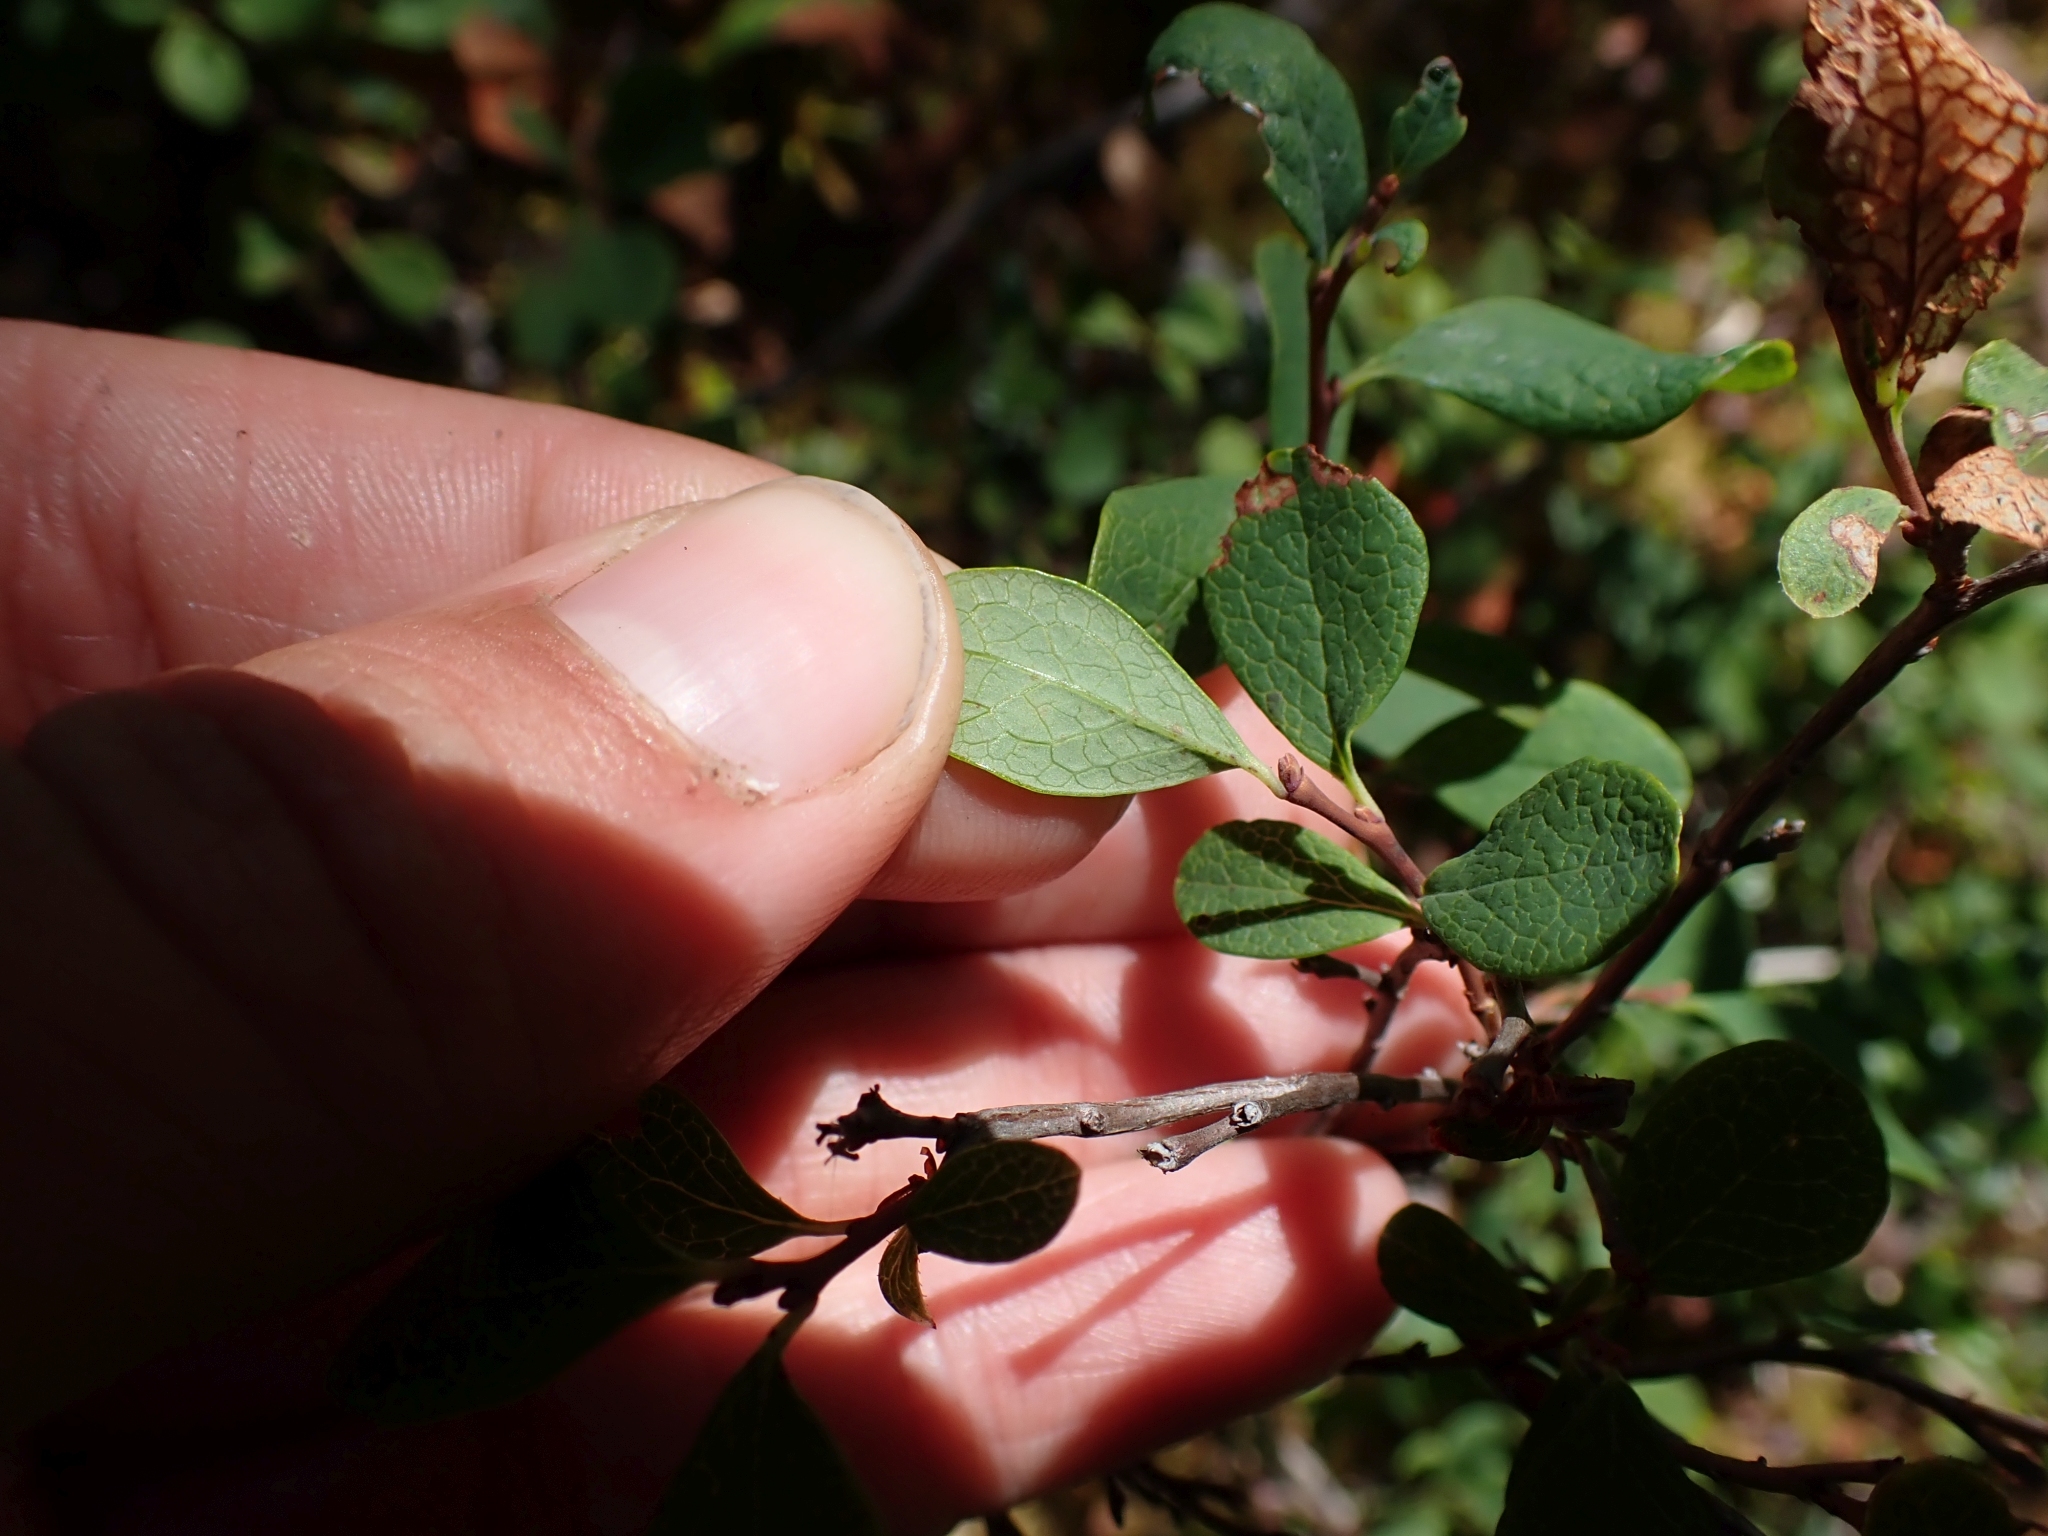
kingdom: Plantae
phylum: Tracheophyta
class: Magnoliopsida
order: Ericales
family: Ericaceae
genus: Vaccinium
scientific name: Vaccinium uliginosum
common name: Bog bilberry
